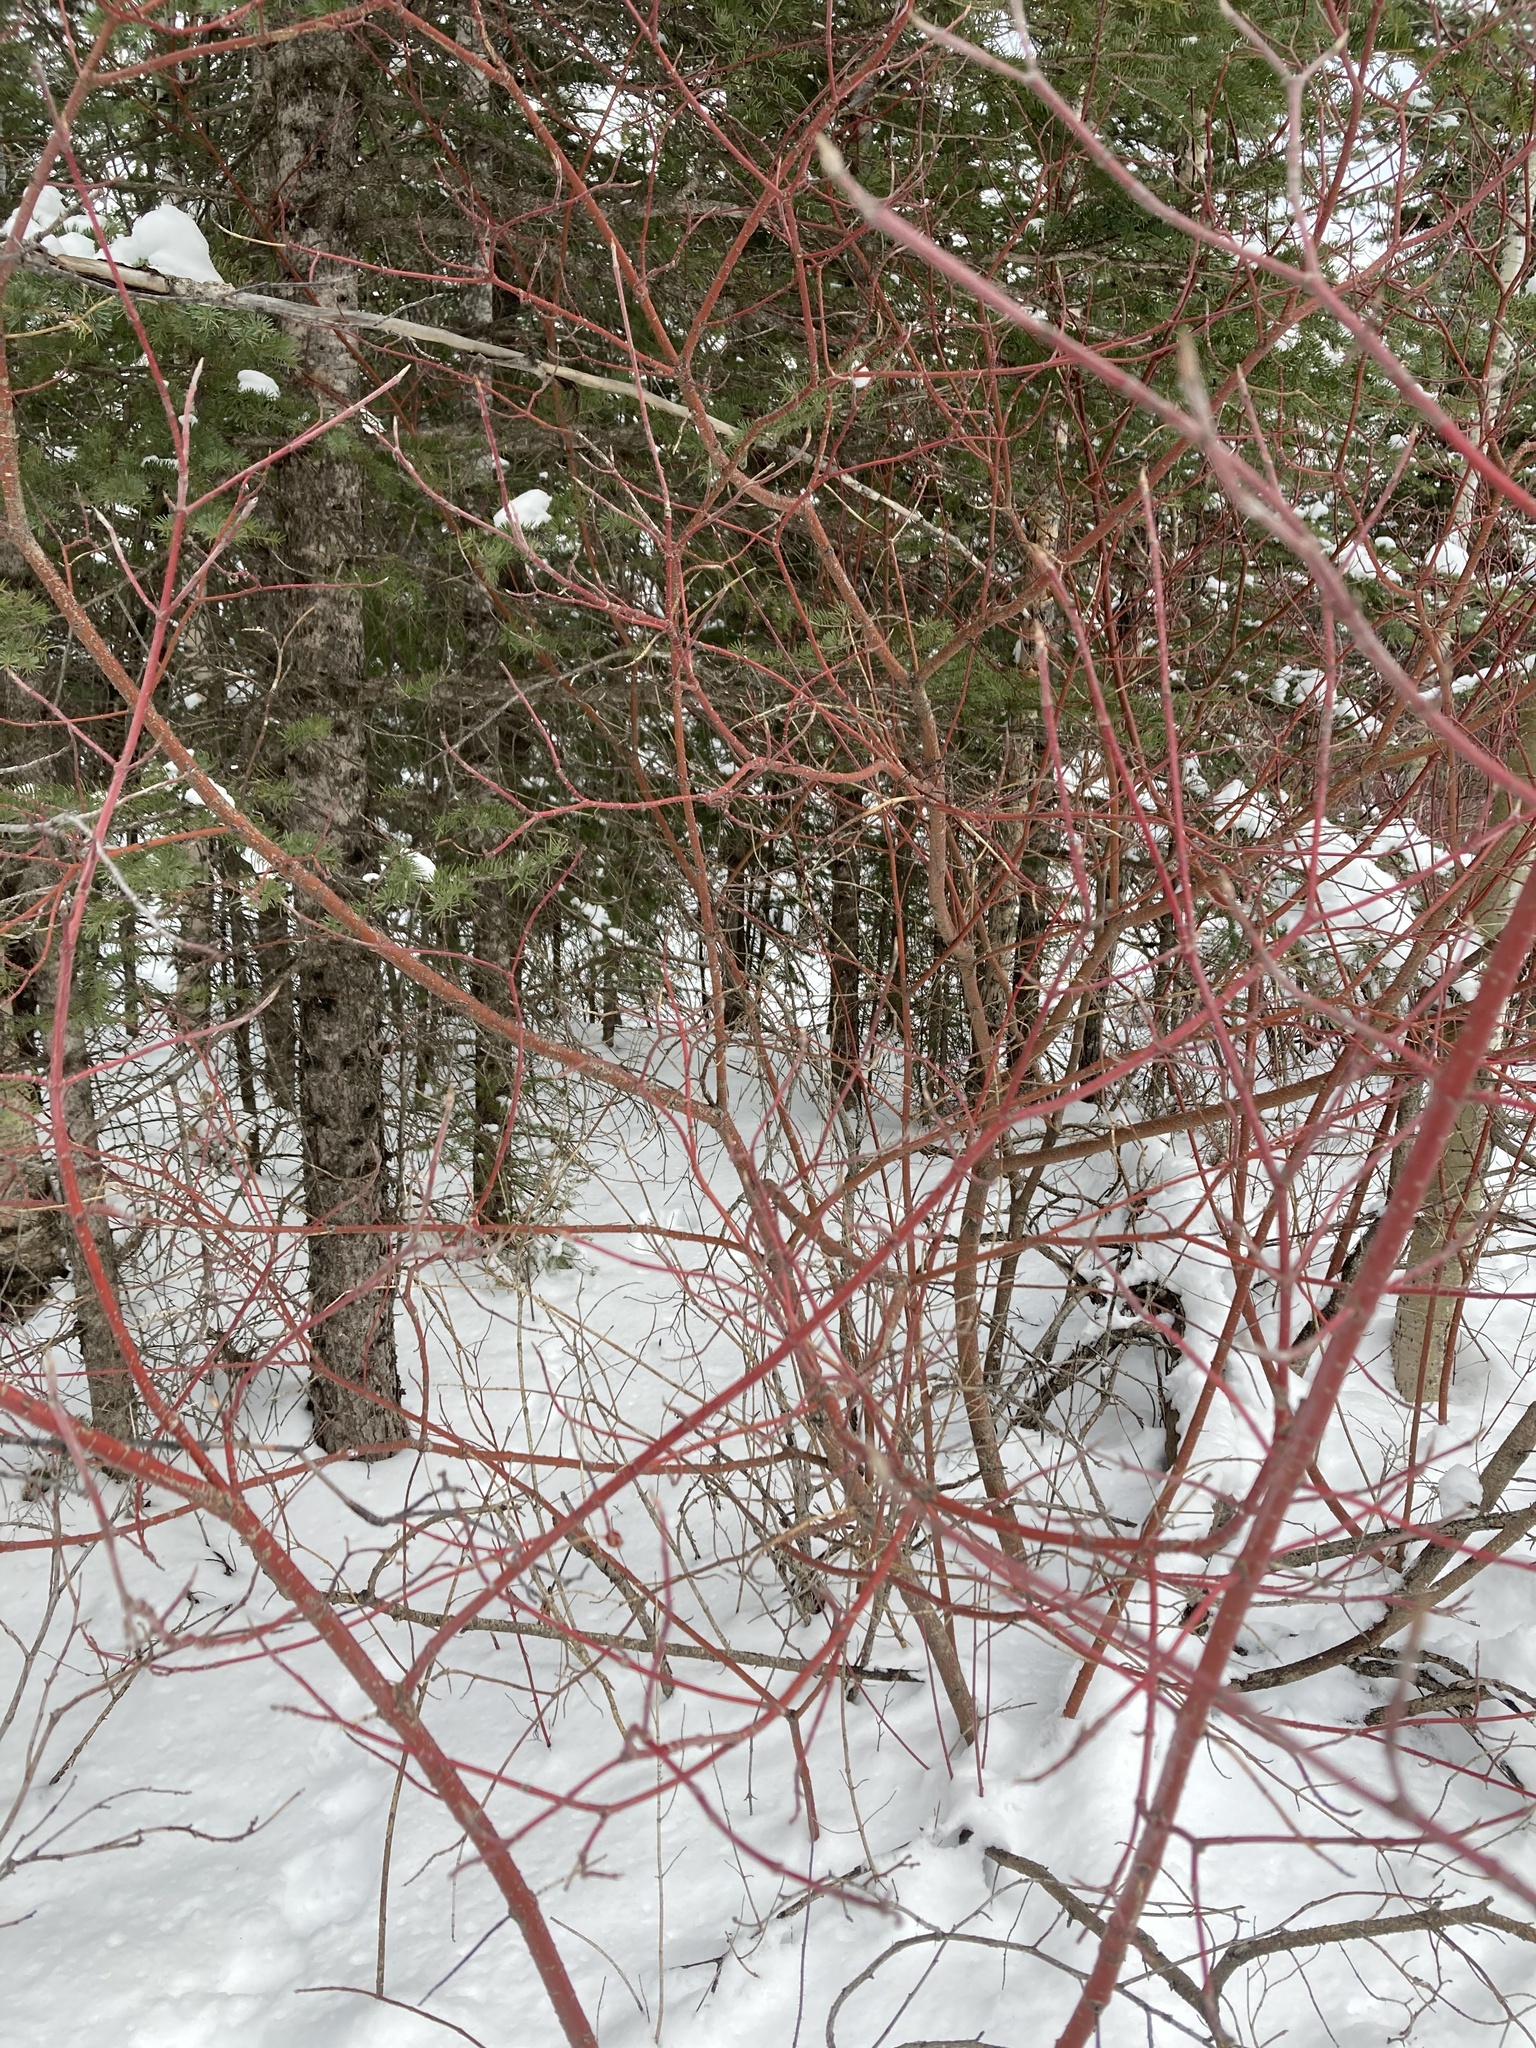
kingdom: Plantae
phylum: Tracheophyta
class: Magnoliopsida
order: Cornales
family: Cornaceae
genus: Cornus
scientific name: Cornus sericea
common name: Red-osier dogwood
